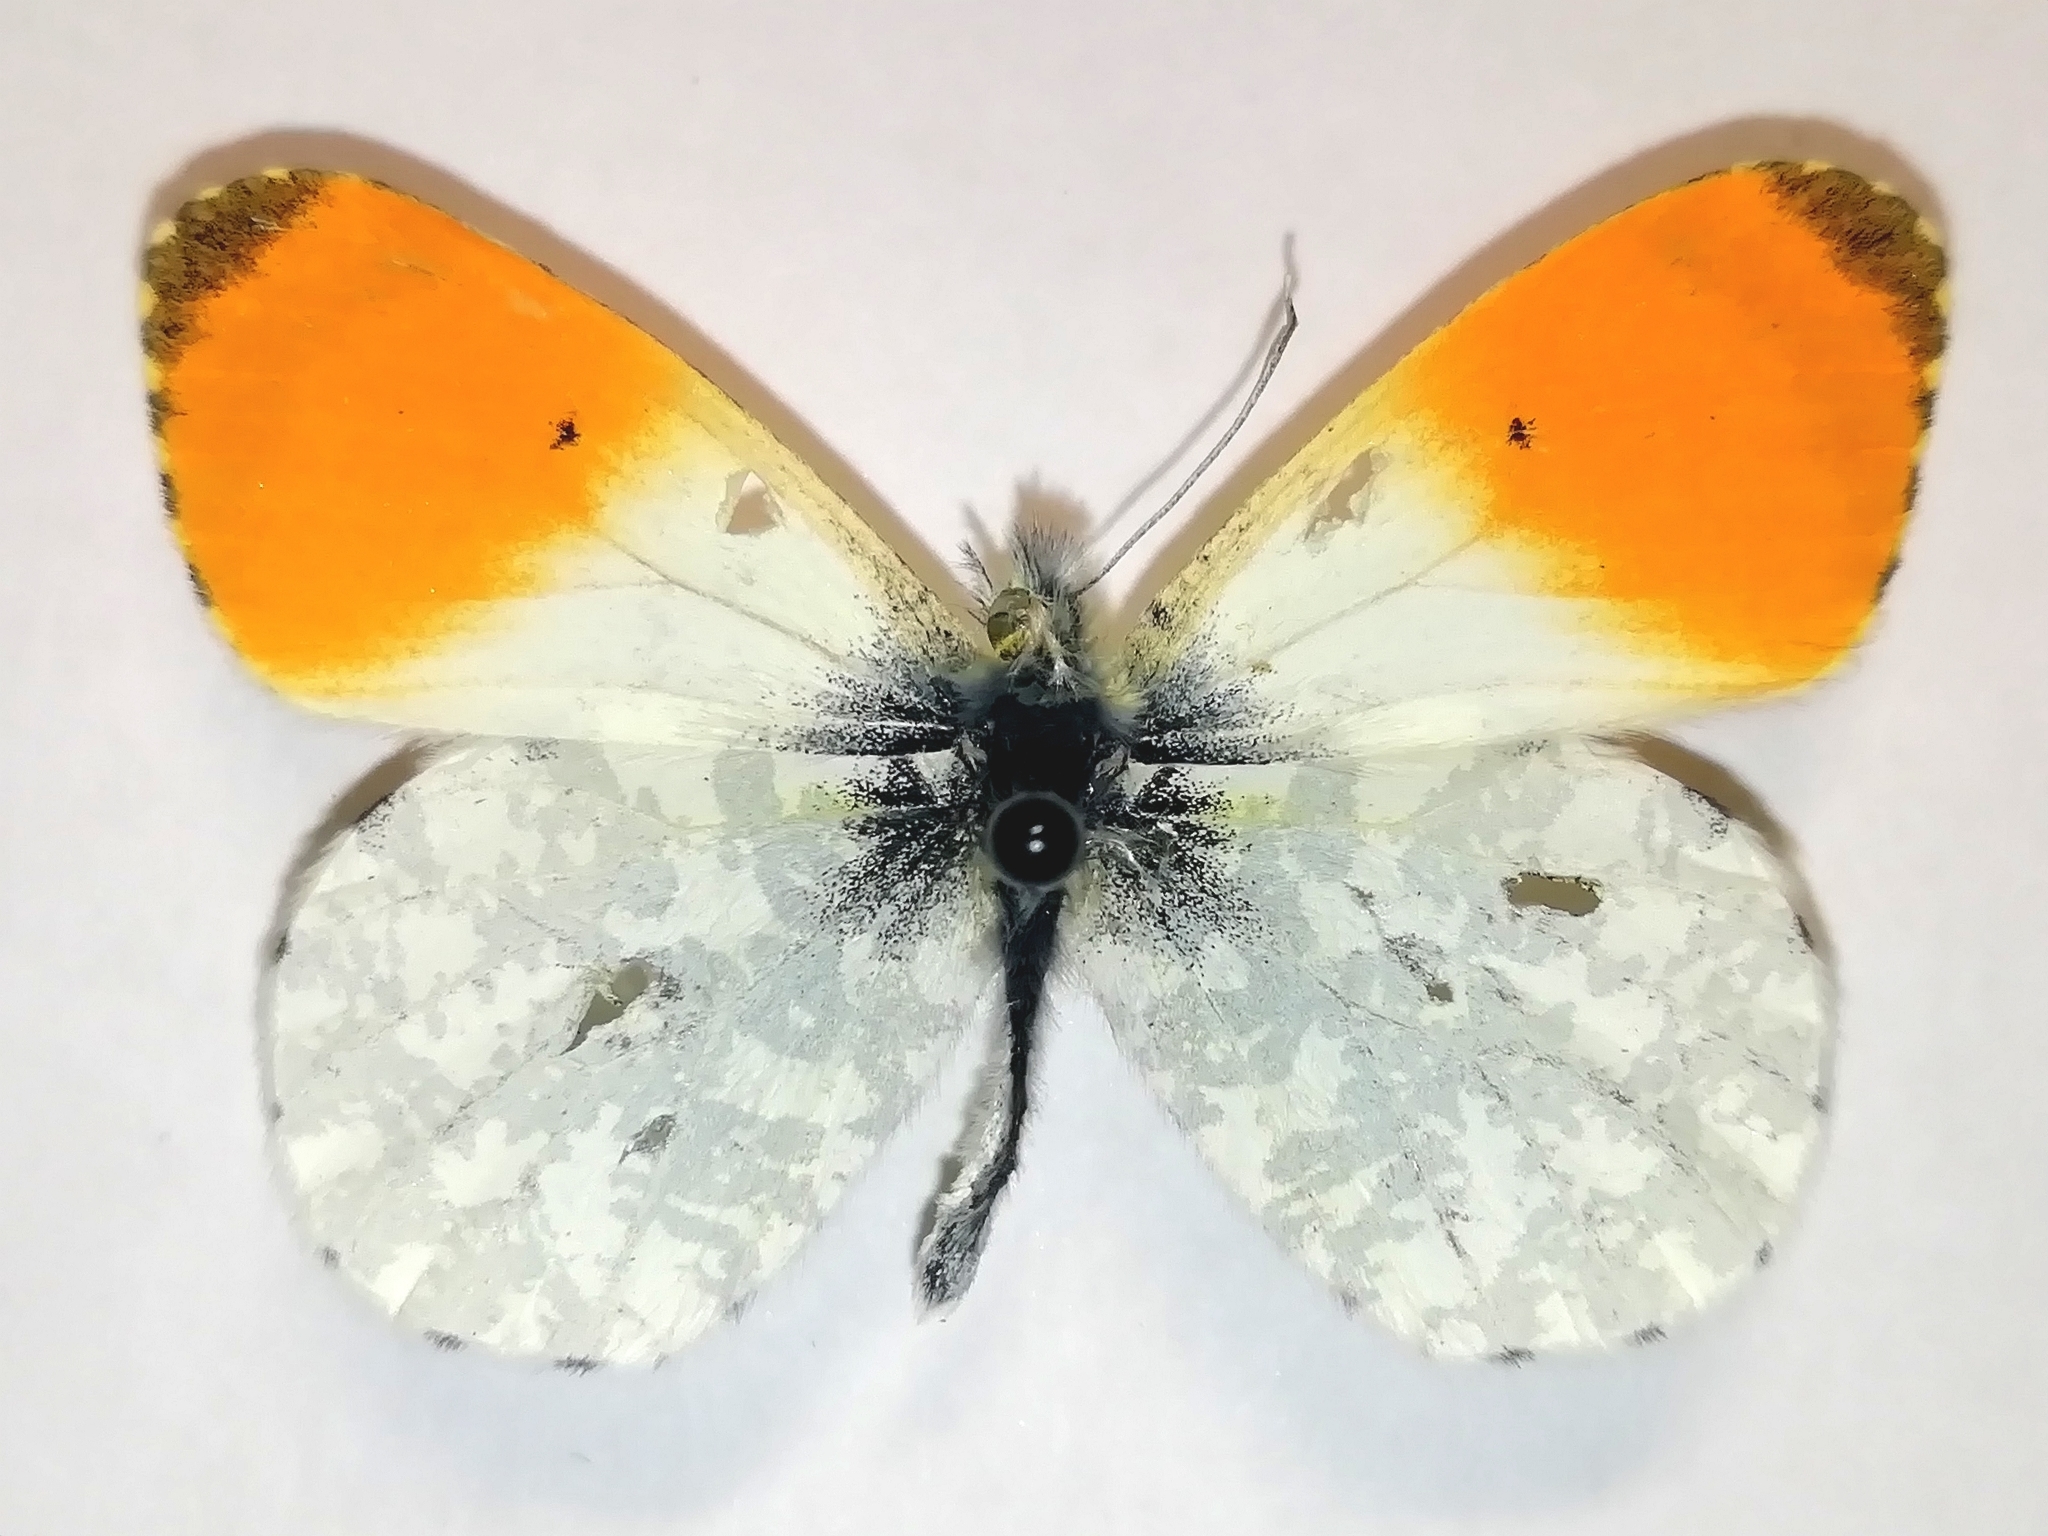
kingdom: Animalia
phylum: Arthropoda
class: Insecta
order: Lepidoptera
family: Pieridae
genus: Anthocharis
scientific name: Anthocharis cardamines
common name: Orange-tip
